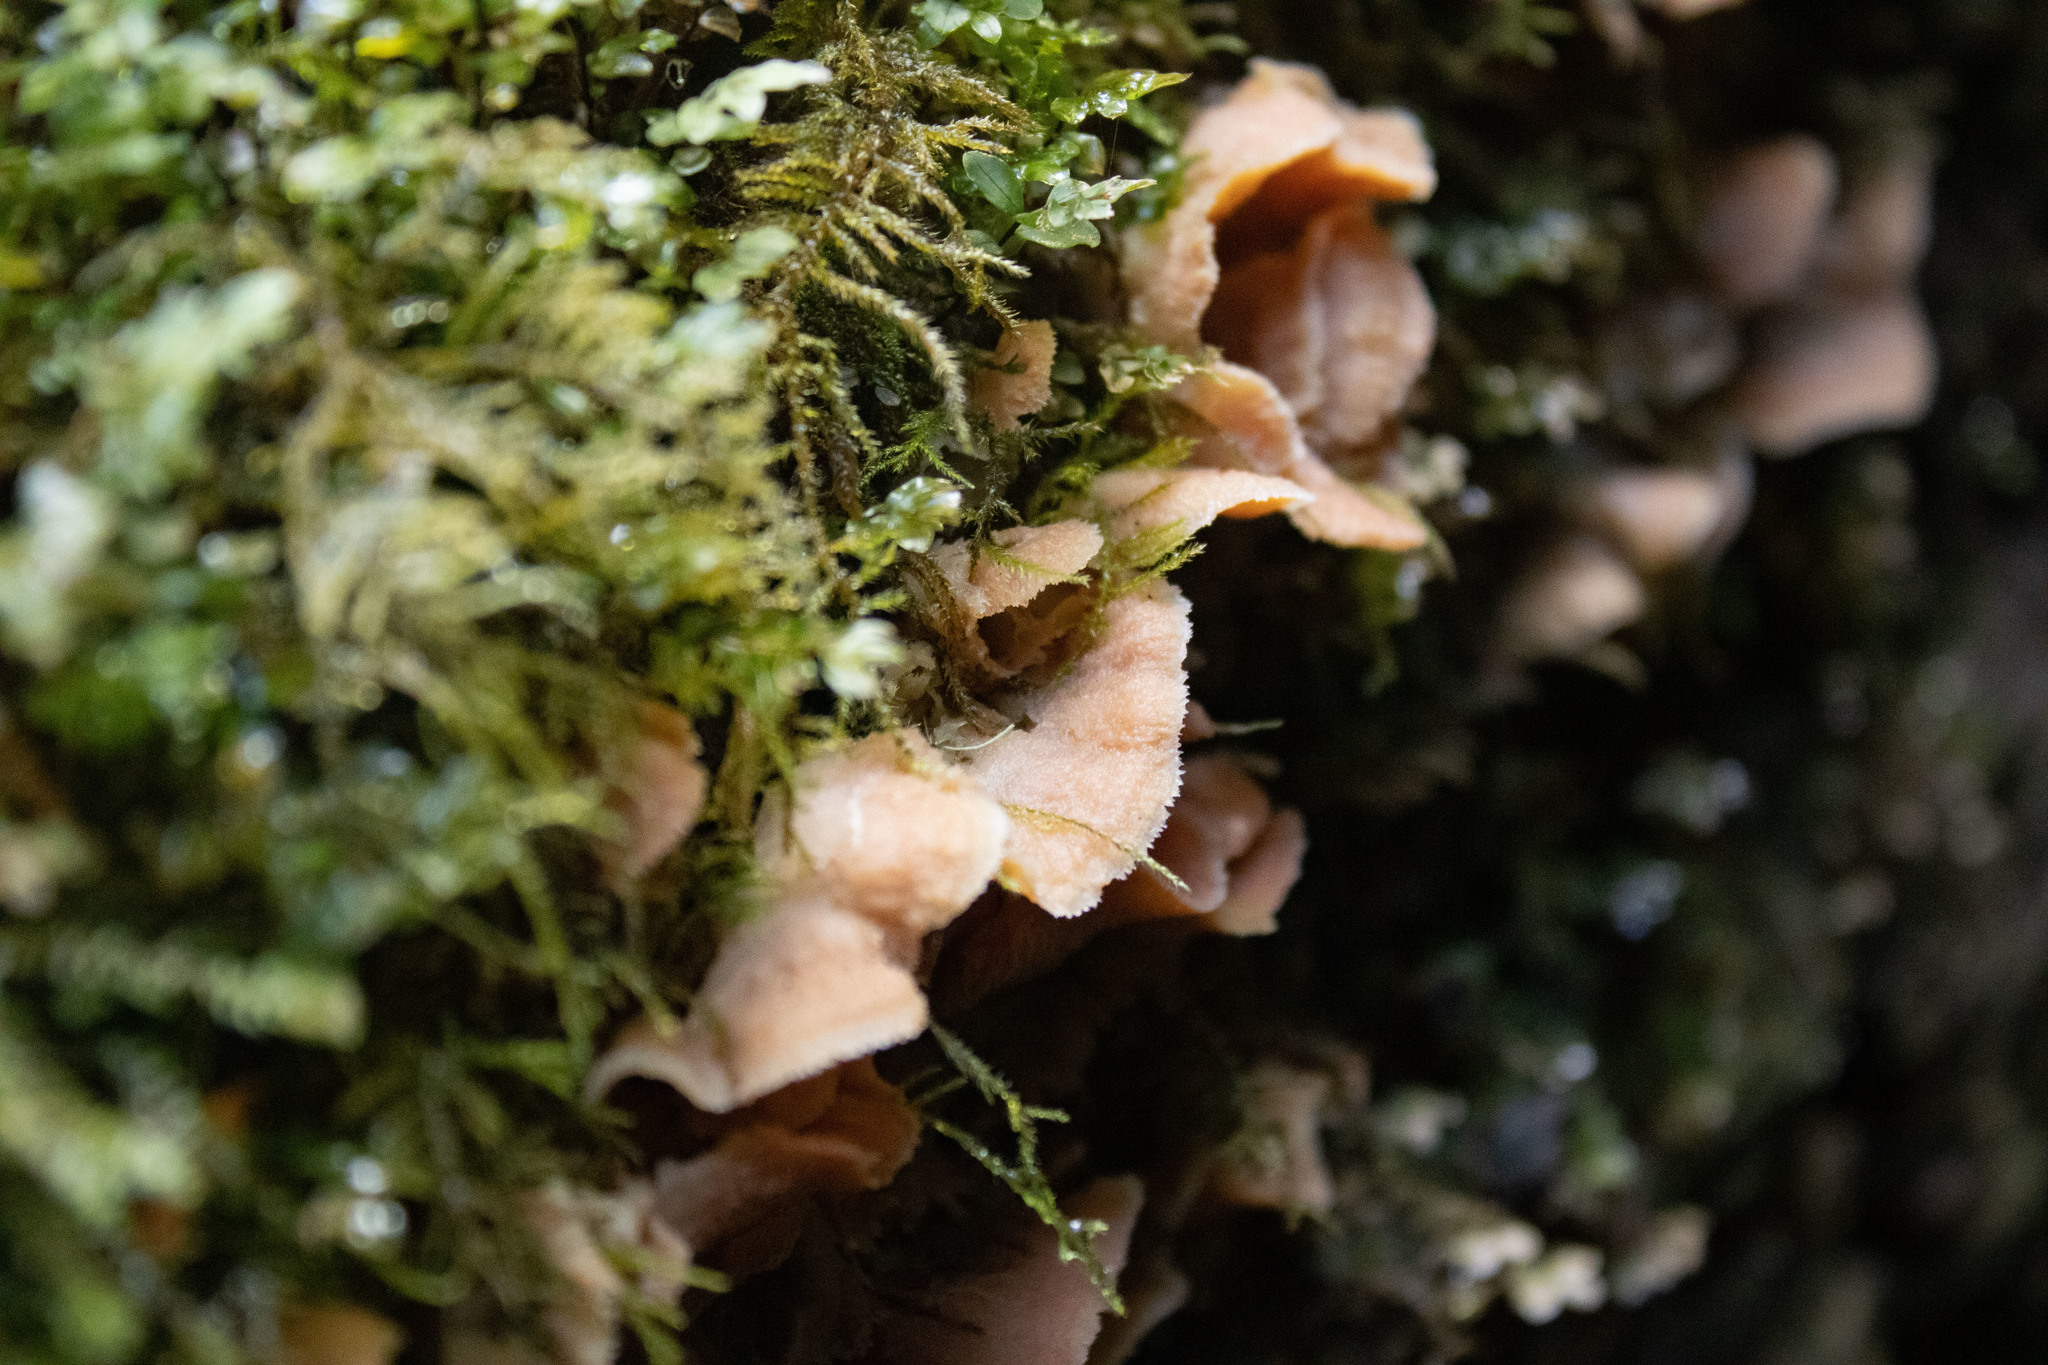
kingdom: Fungi
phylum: Basidiomycota
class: Agaricomycetes
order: Polyporales
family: Meruliaceae
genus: Phlebia
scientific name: Phlebia tremellosa
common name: Jelly rot
